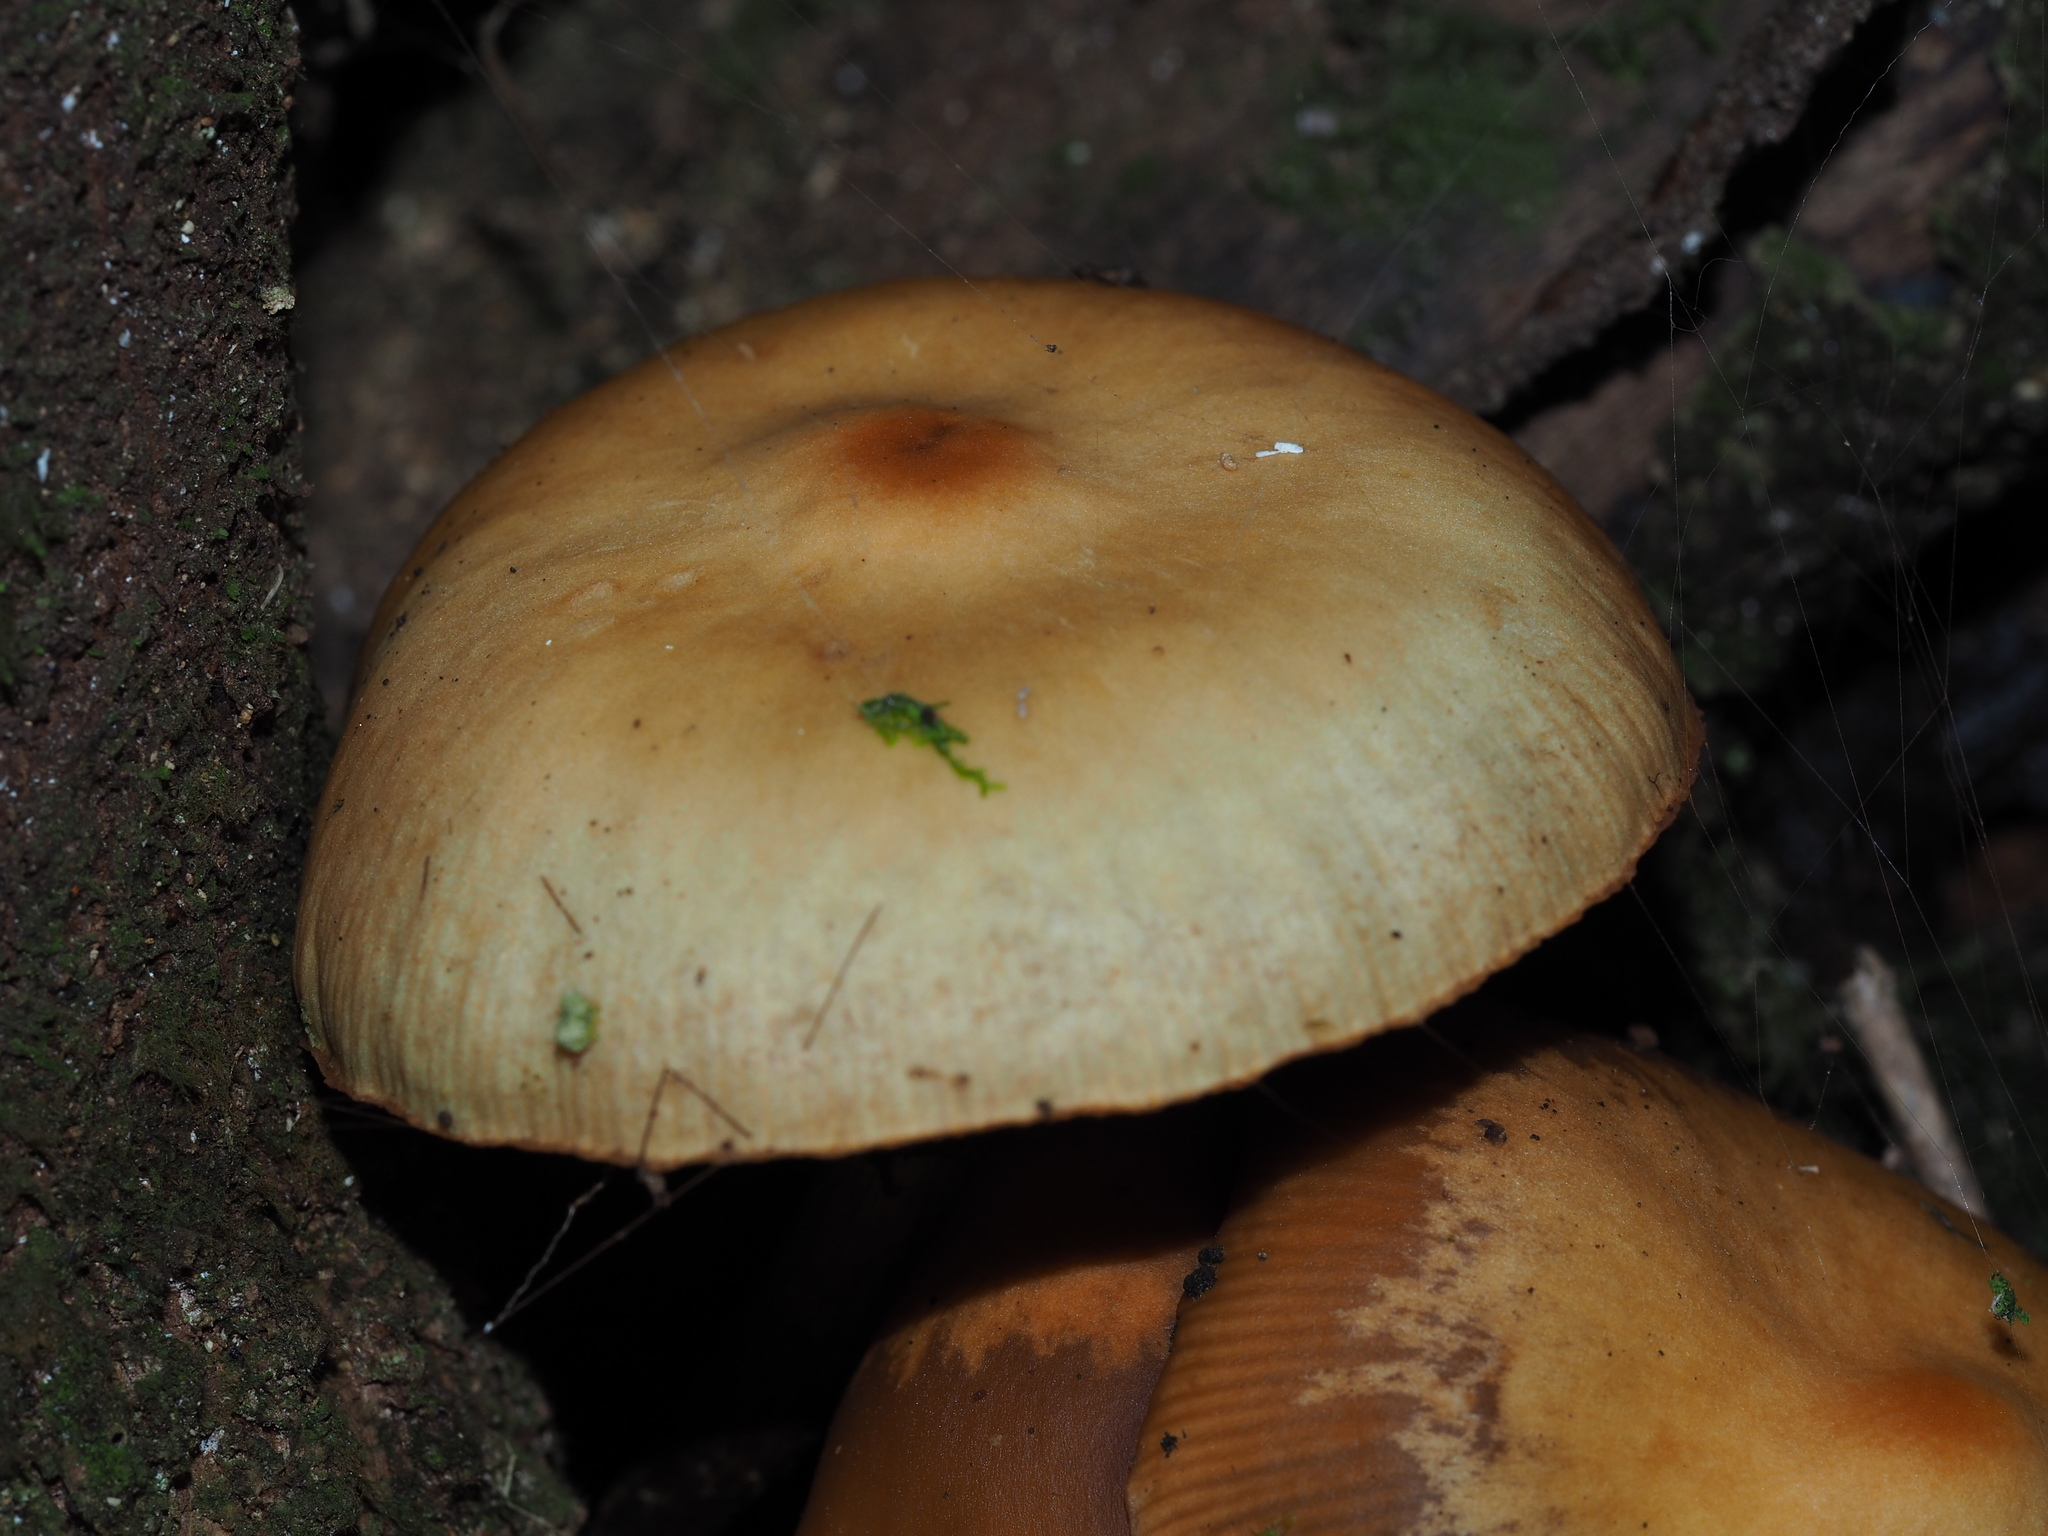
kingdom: Fungi
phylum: Basidiomycota
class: Agaricomycetes
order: Agaricales
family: Hymenogastraceae
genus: Galerina
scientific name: Galerina patagonica
